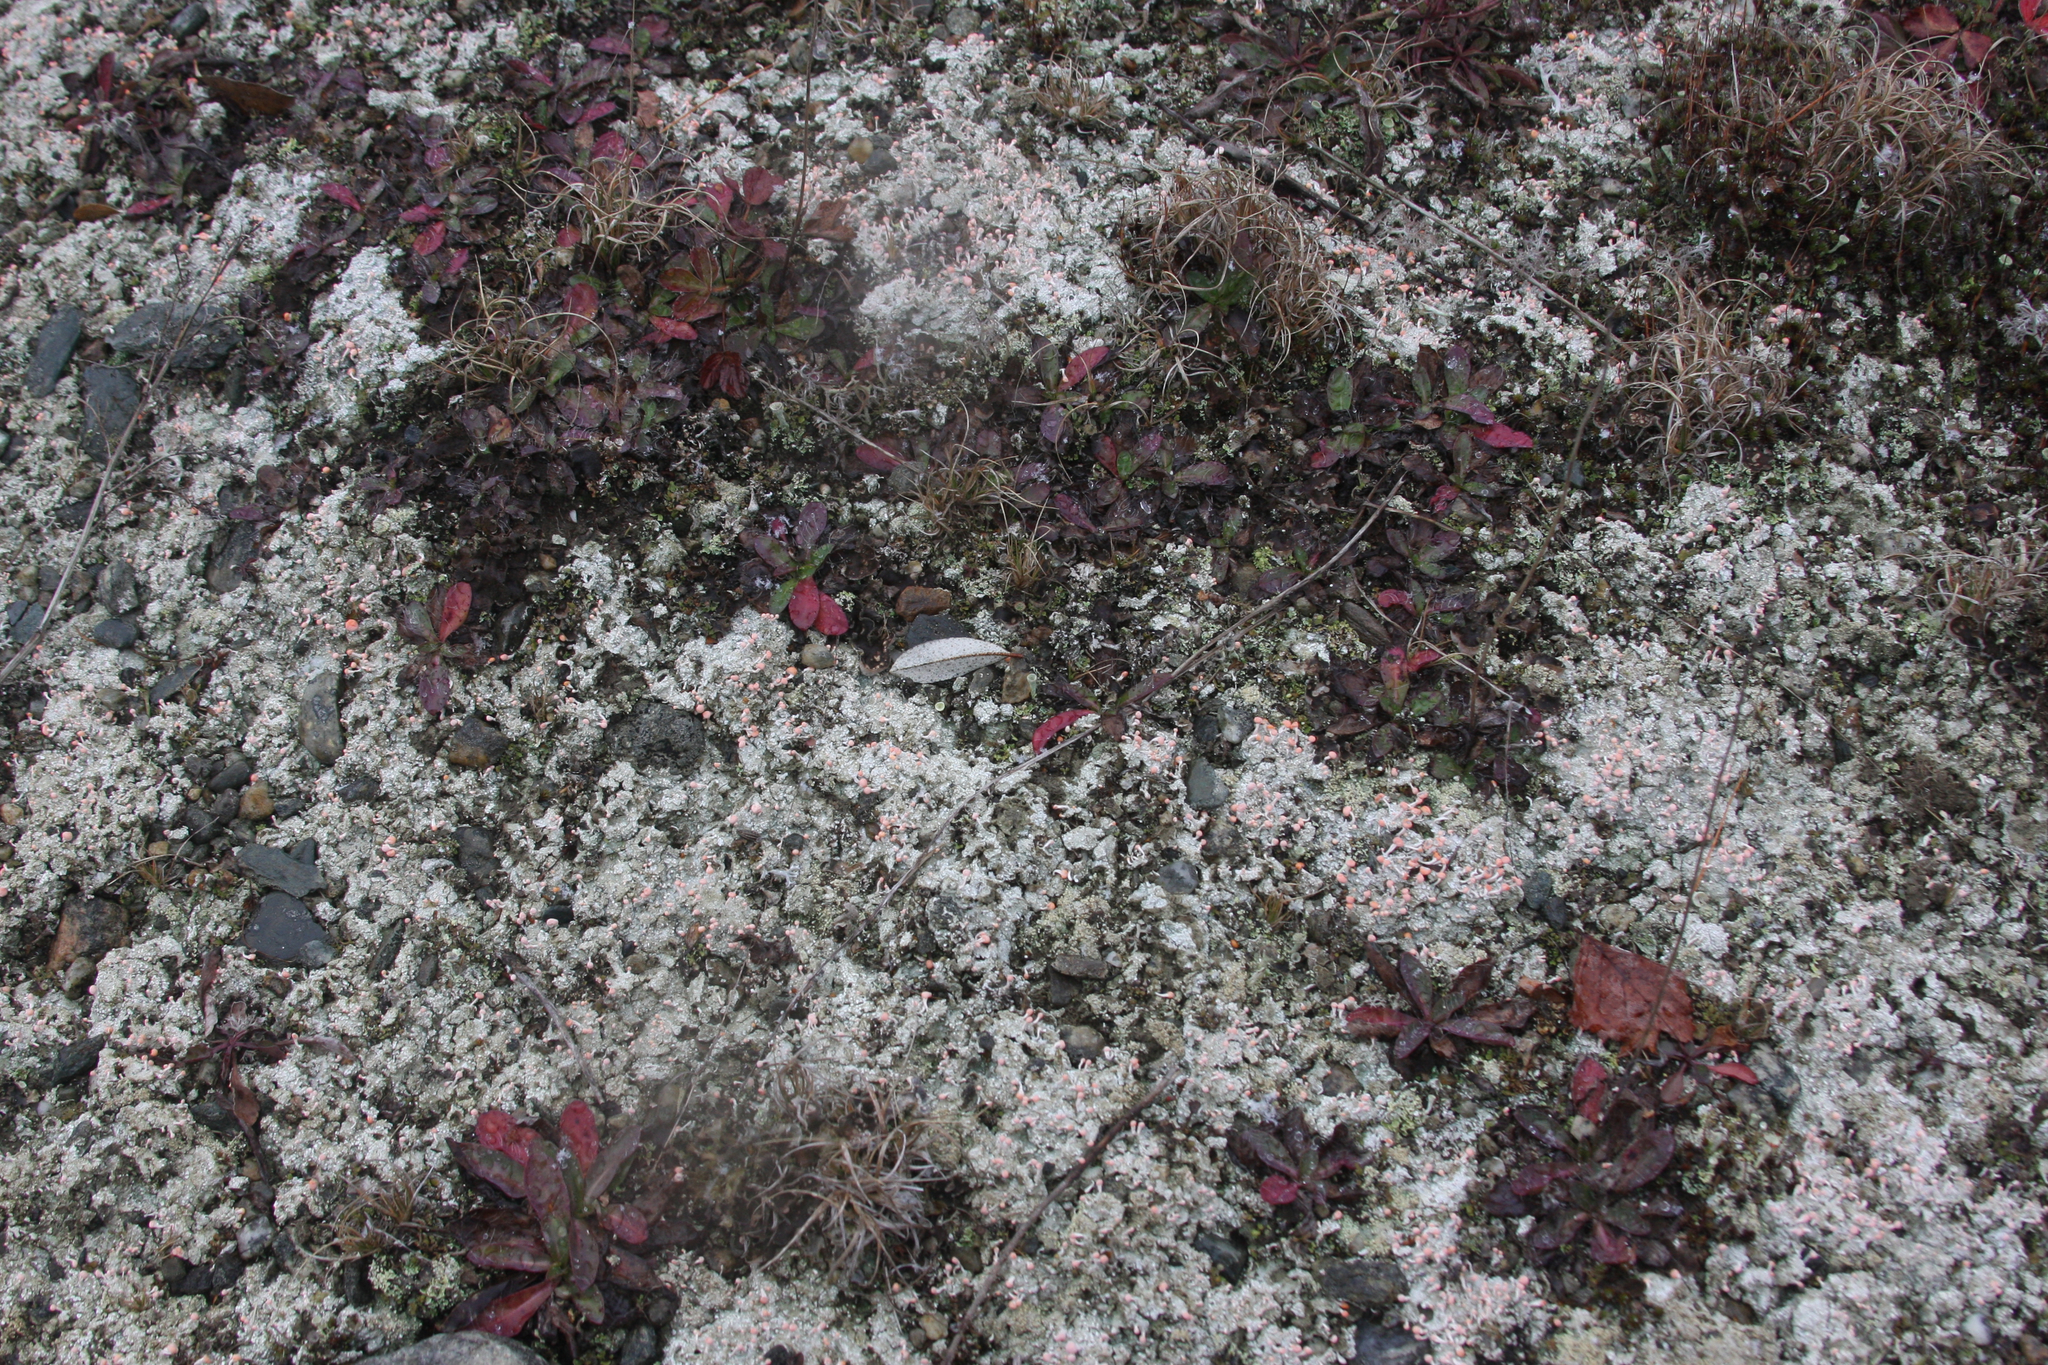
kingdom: Fungi
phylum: Ascomycota
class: Lecanoromycetes
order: Pertusariales
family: Icmadophilaceae
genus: Dibaeis
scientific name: Dibaeis baeomyces
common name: Pink earth lichen
